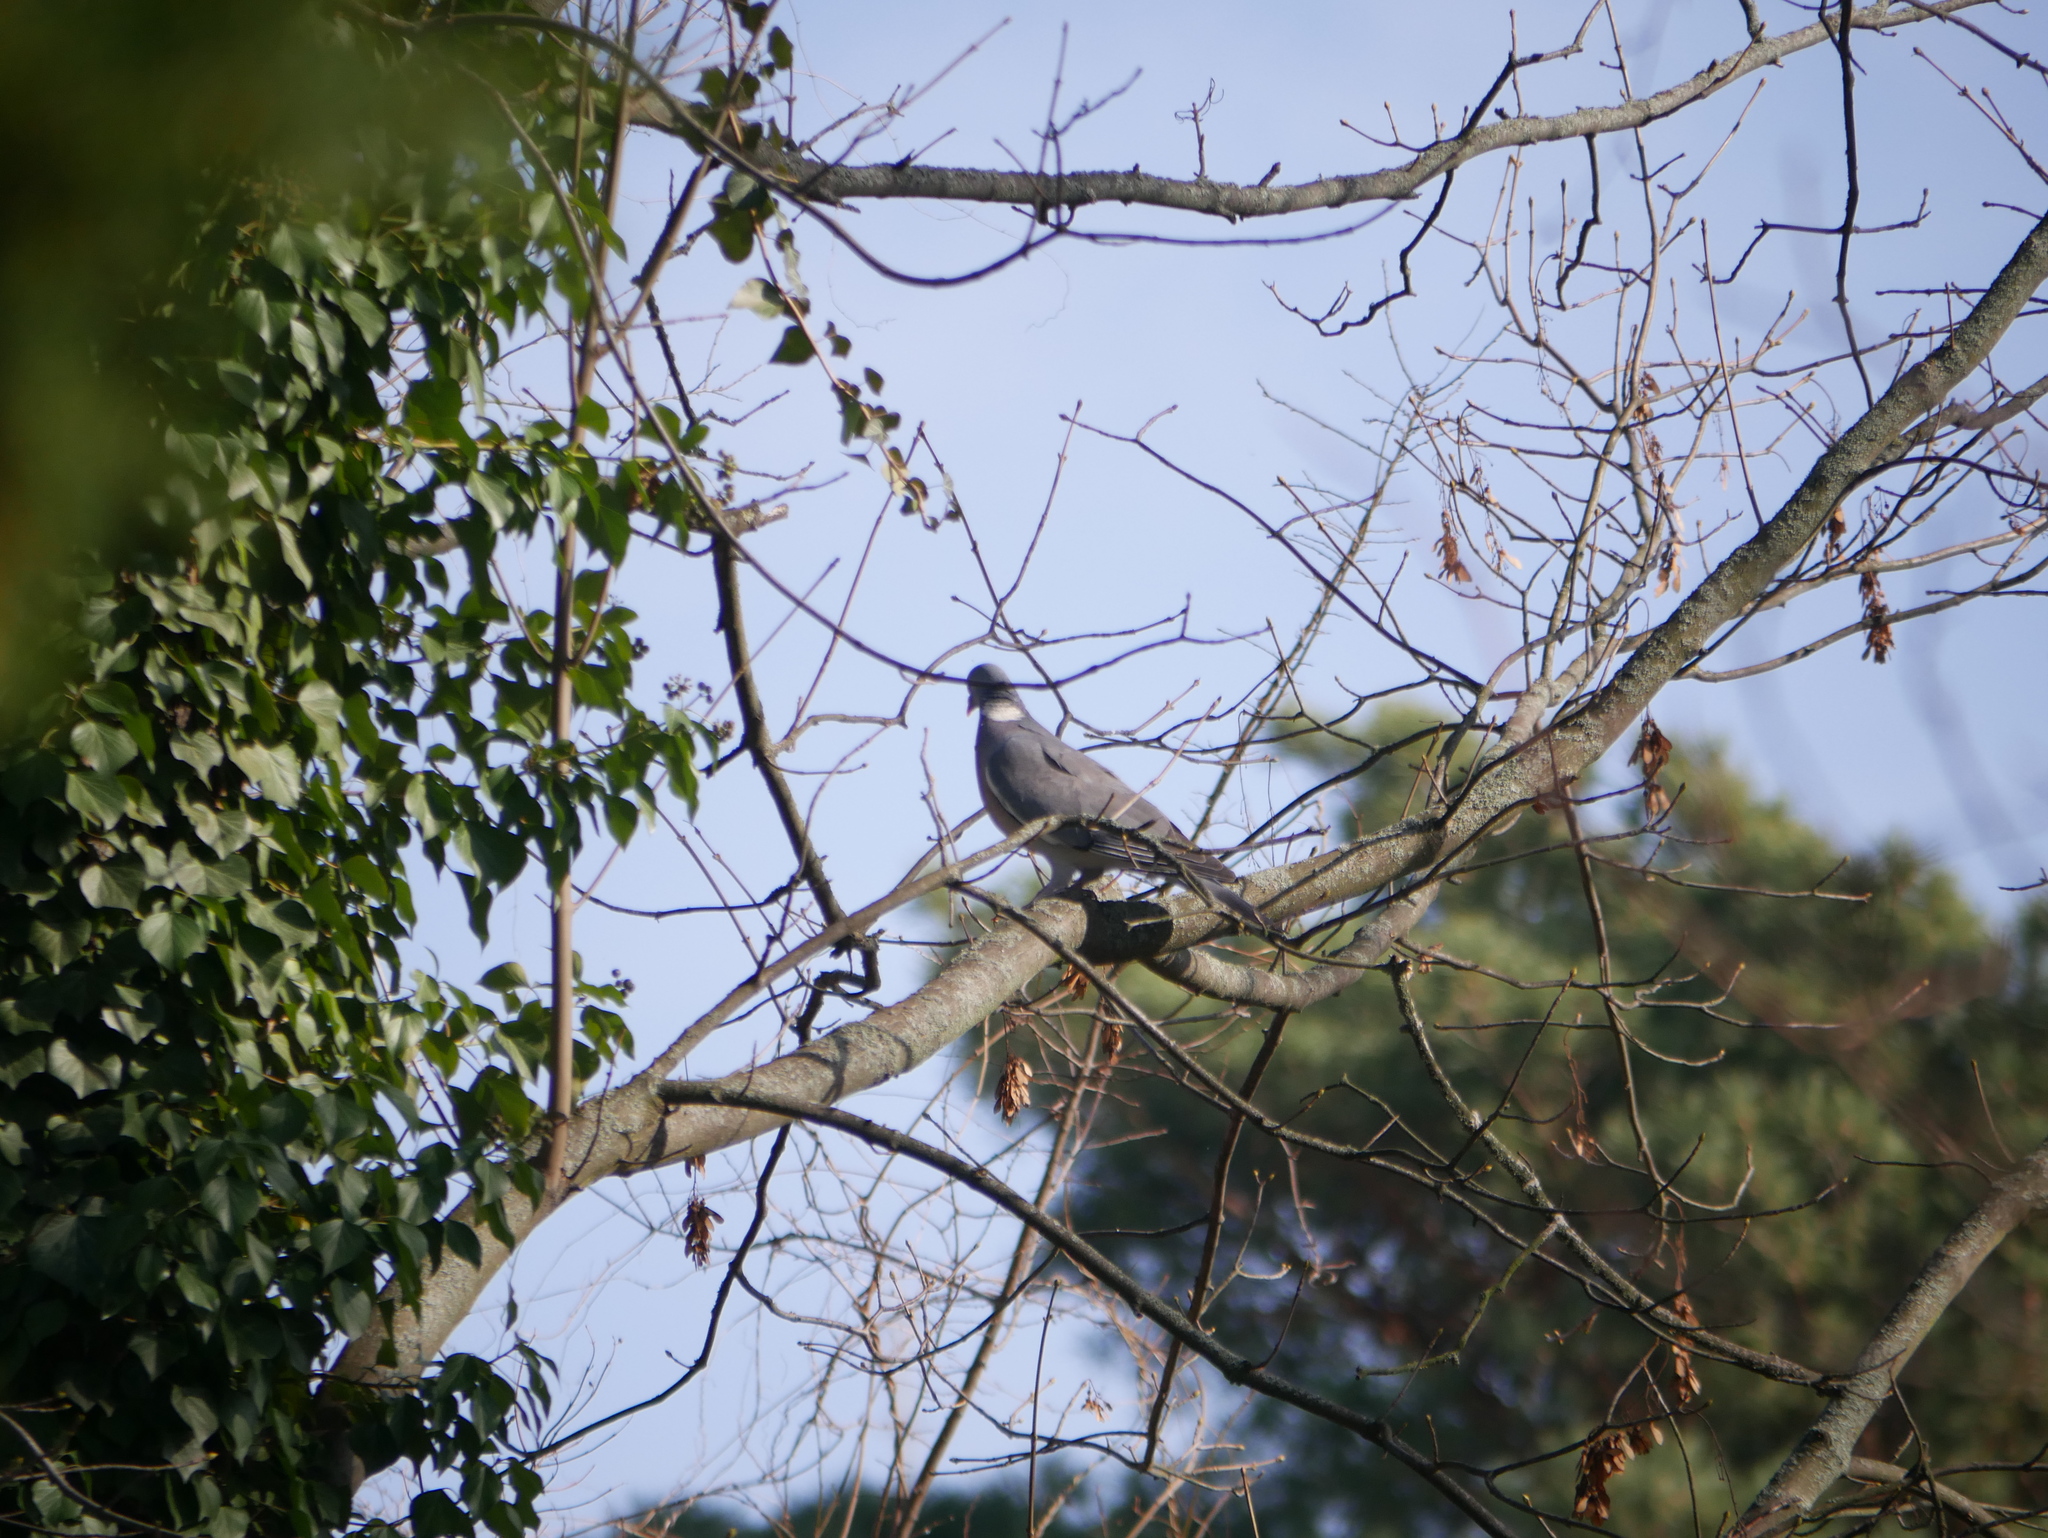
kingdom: Animalia
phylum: Chordata
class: Aves
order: Columbiformes
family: Columbidae
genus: Columba
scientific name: Columba palumbus
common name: Common wood pigeon
